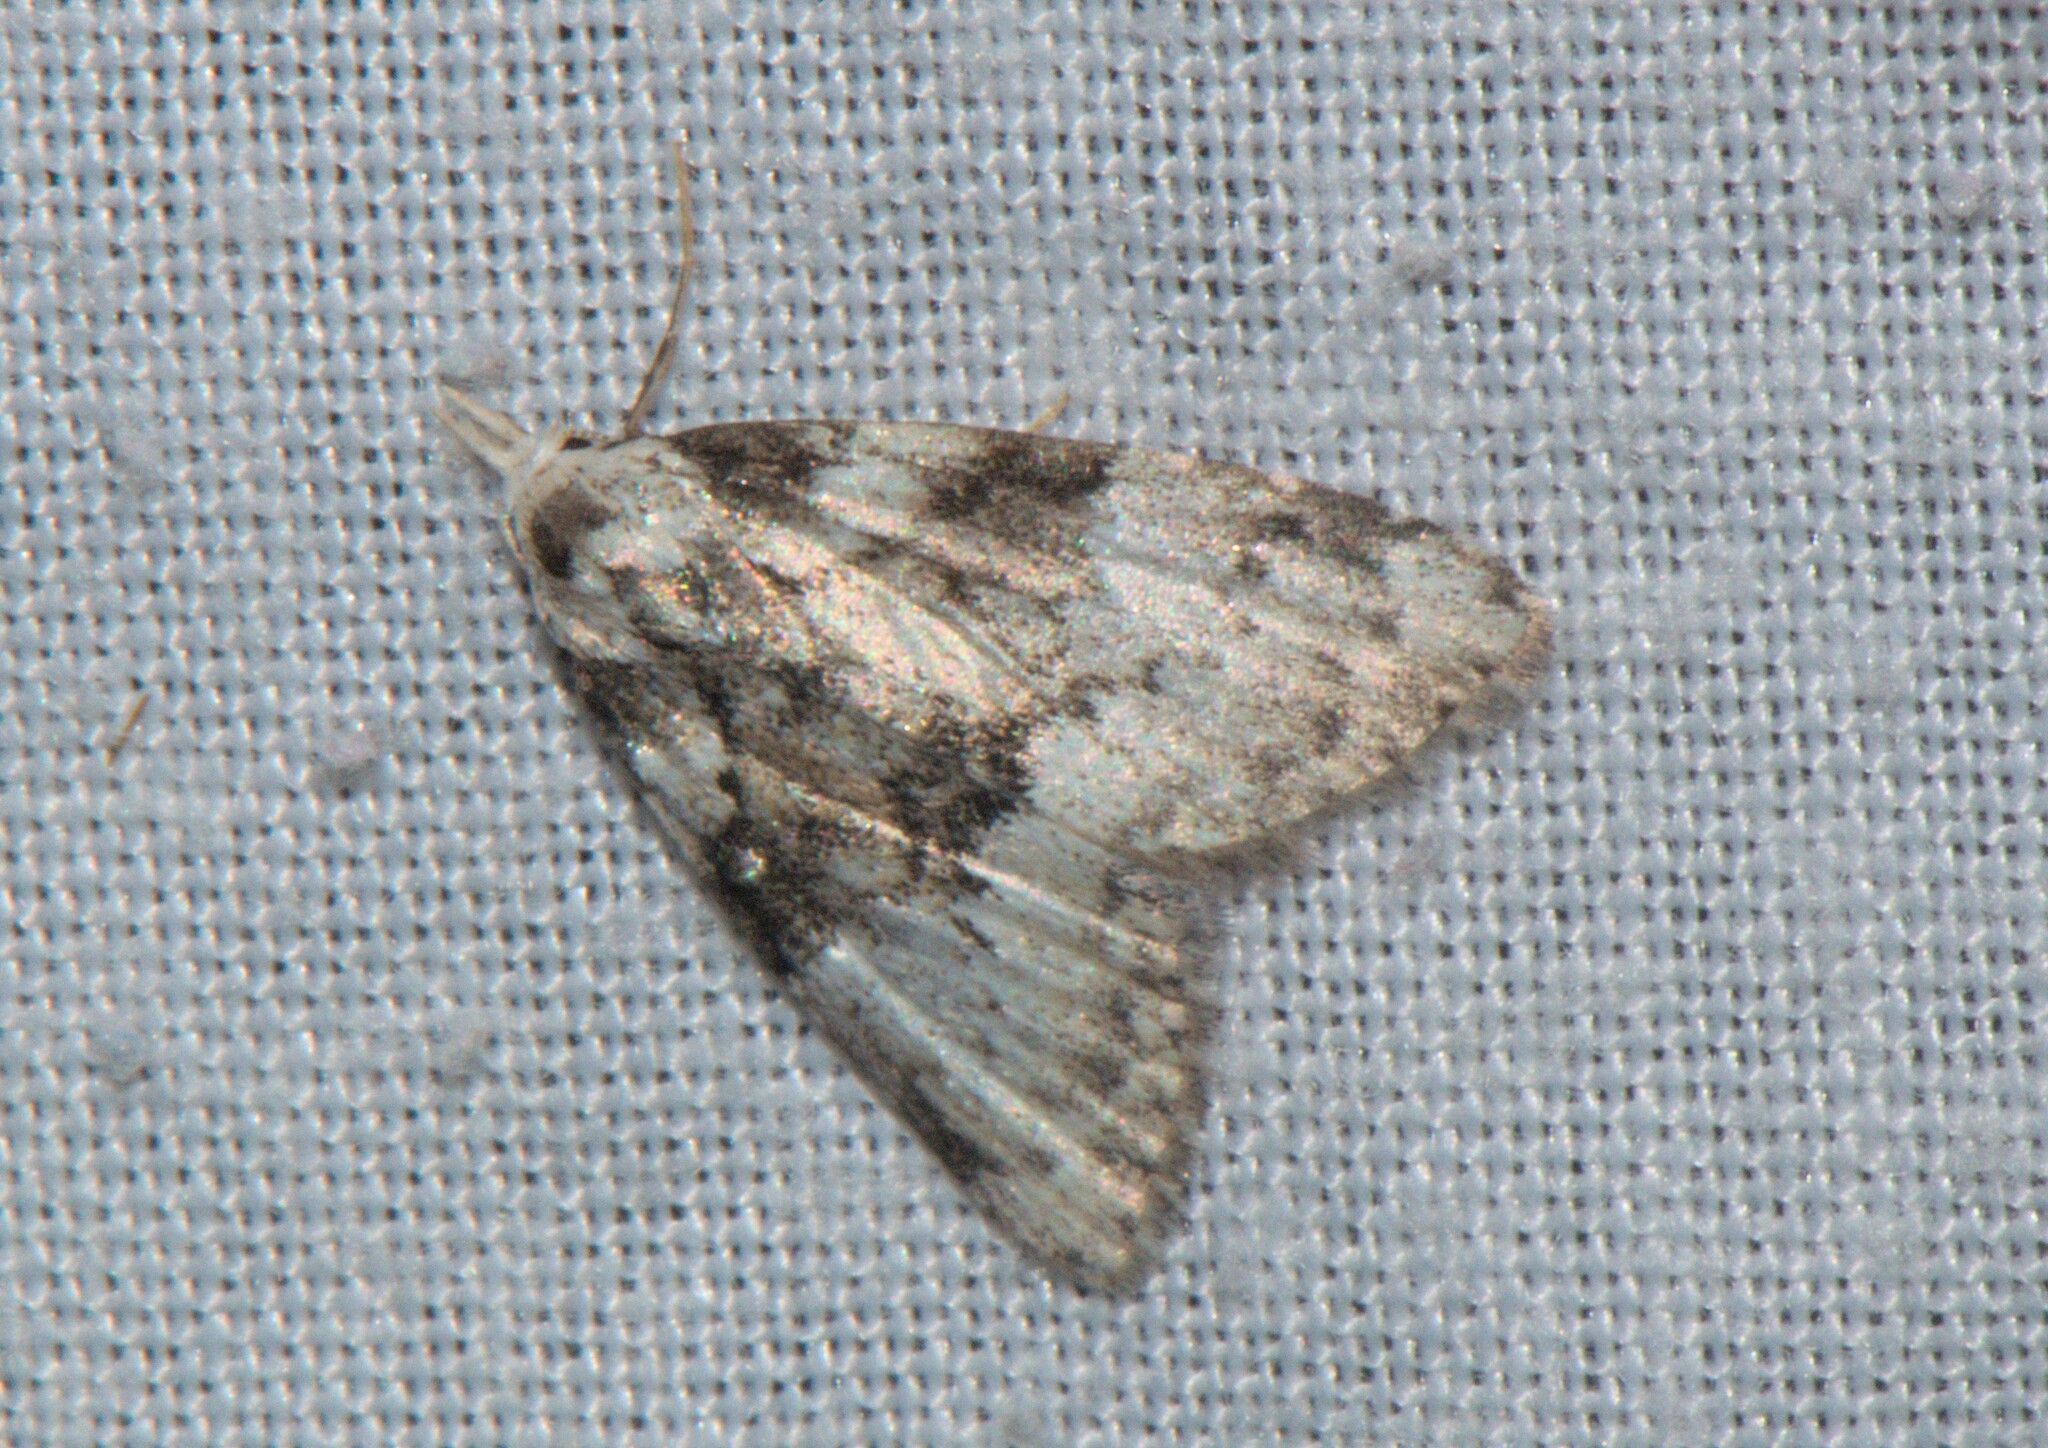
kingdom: Animalia
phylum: Arthropoda
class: Insecta
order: Lepidoptera
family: Nolidae
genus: Manoba
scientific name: Manoba
